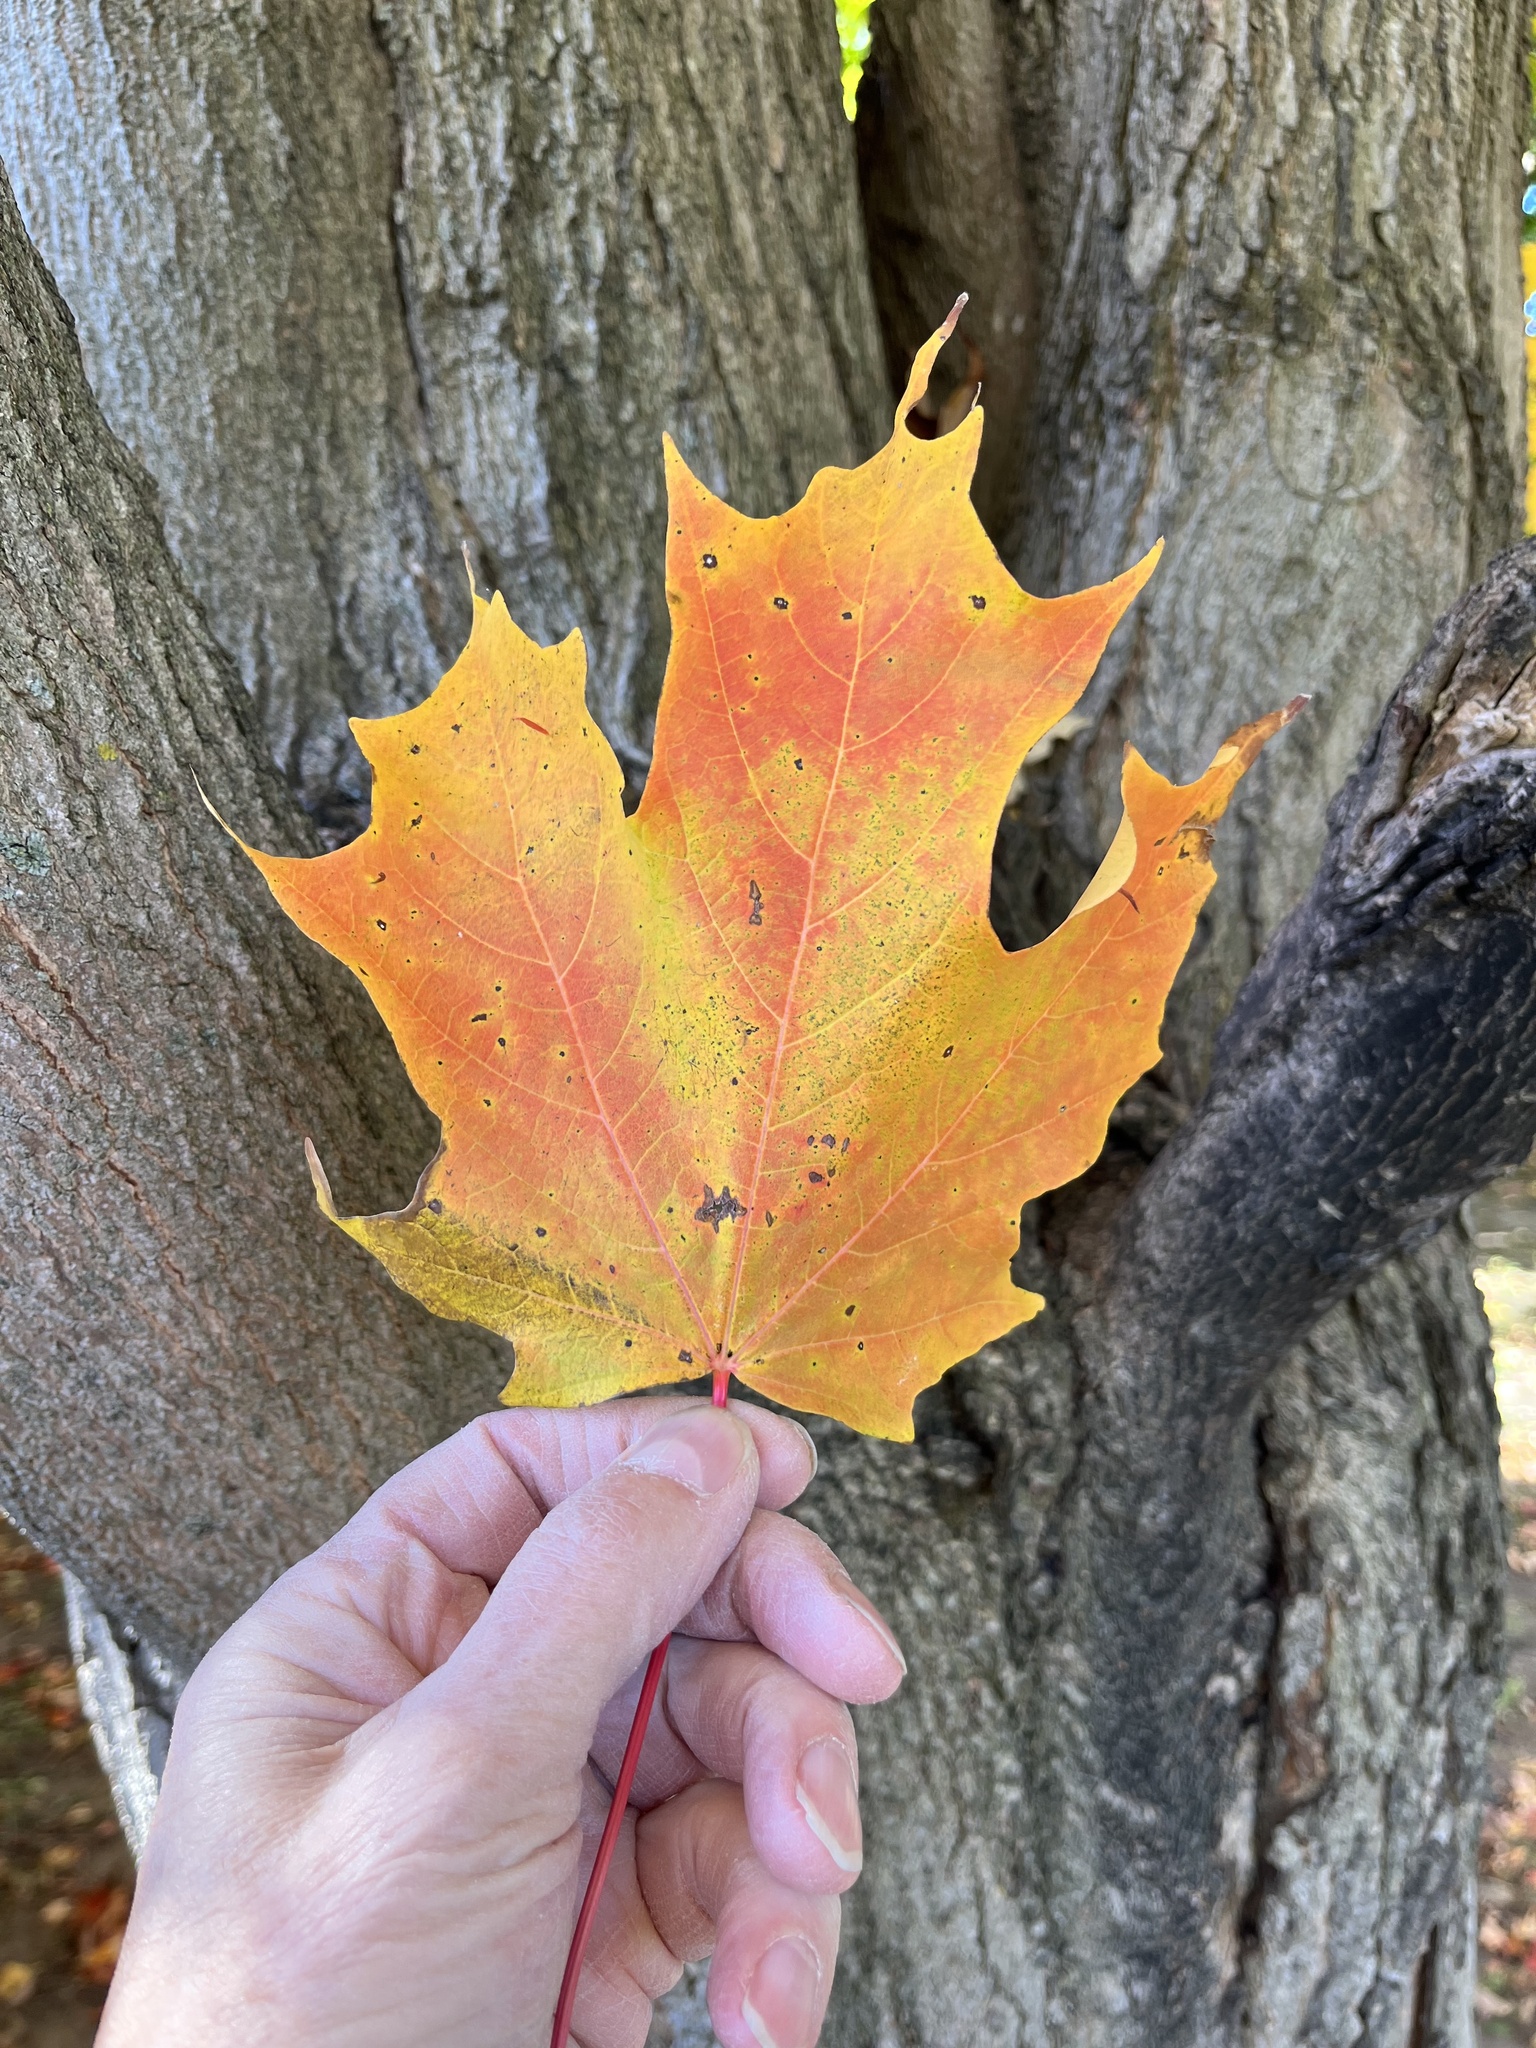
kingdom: Plantae
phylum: Tracheophyta
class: Magnoliopsida
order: Sapindales
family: Sapindaceae
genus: Acer
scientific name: Acer saccharum
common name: Sugar maple
